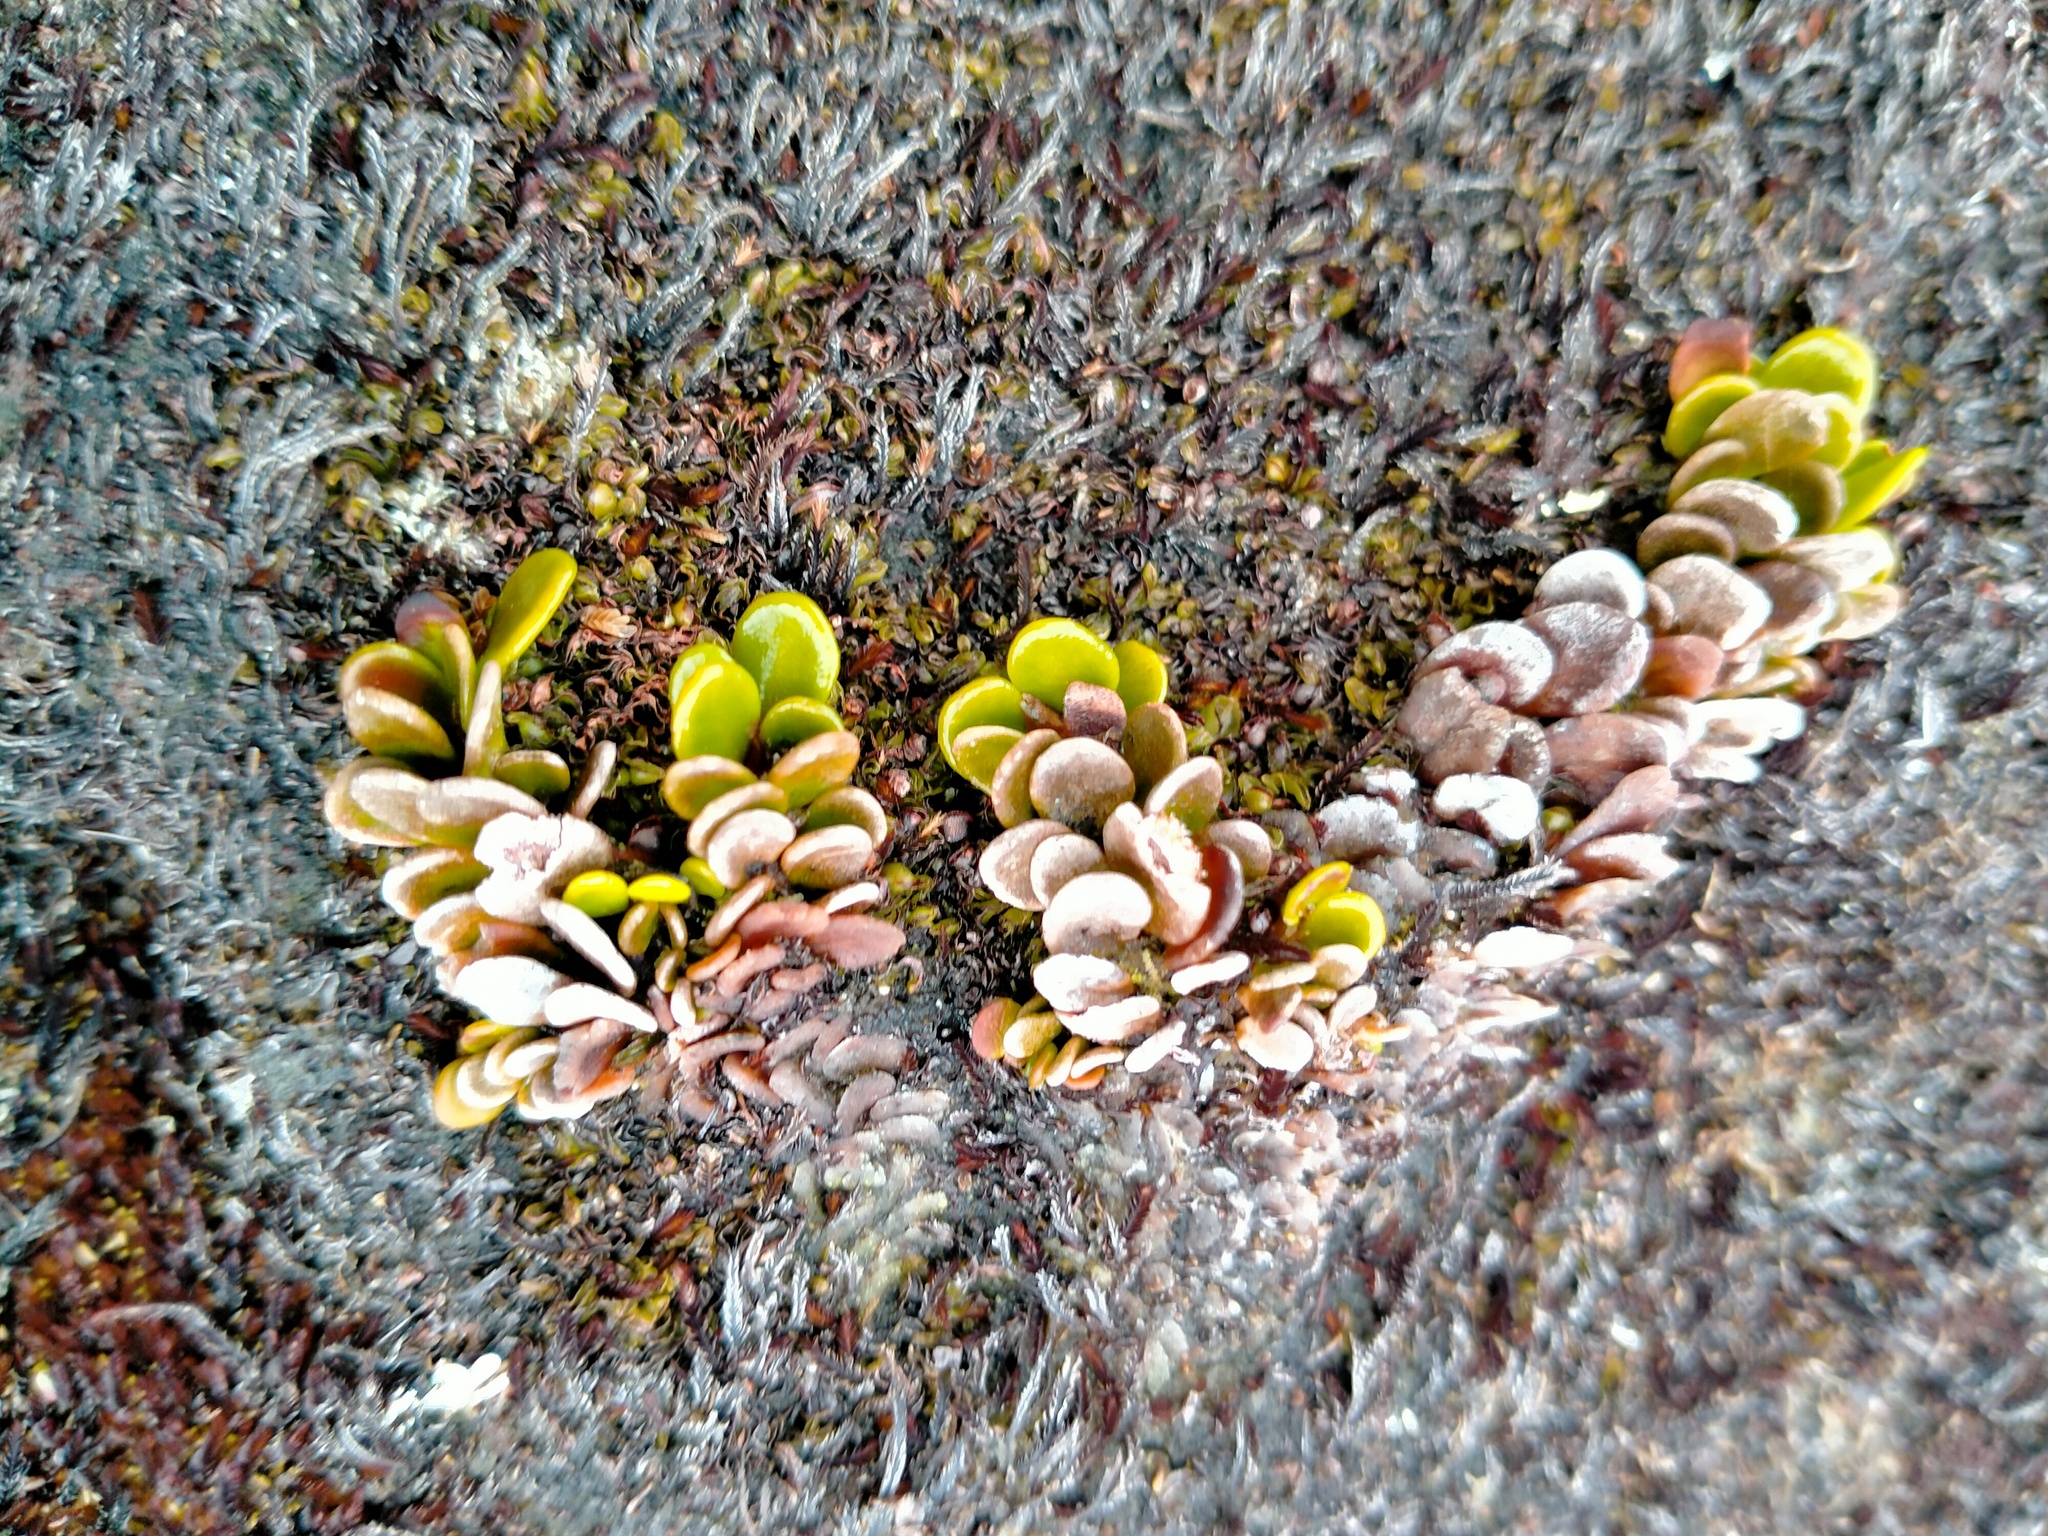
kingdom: Plantae
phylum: Tracheophyta
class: Polypodiopsida
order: Polypodiales
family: Polypodiaceae
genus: Notogrammitis
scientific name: Notogrammitis crassior
